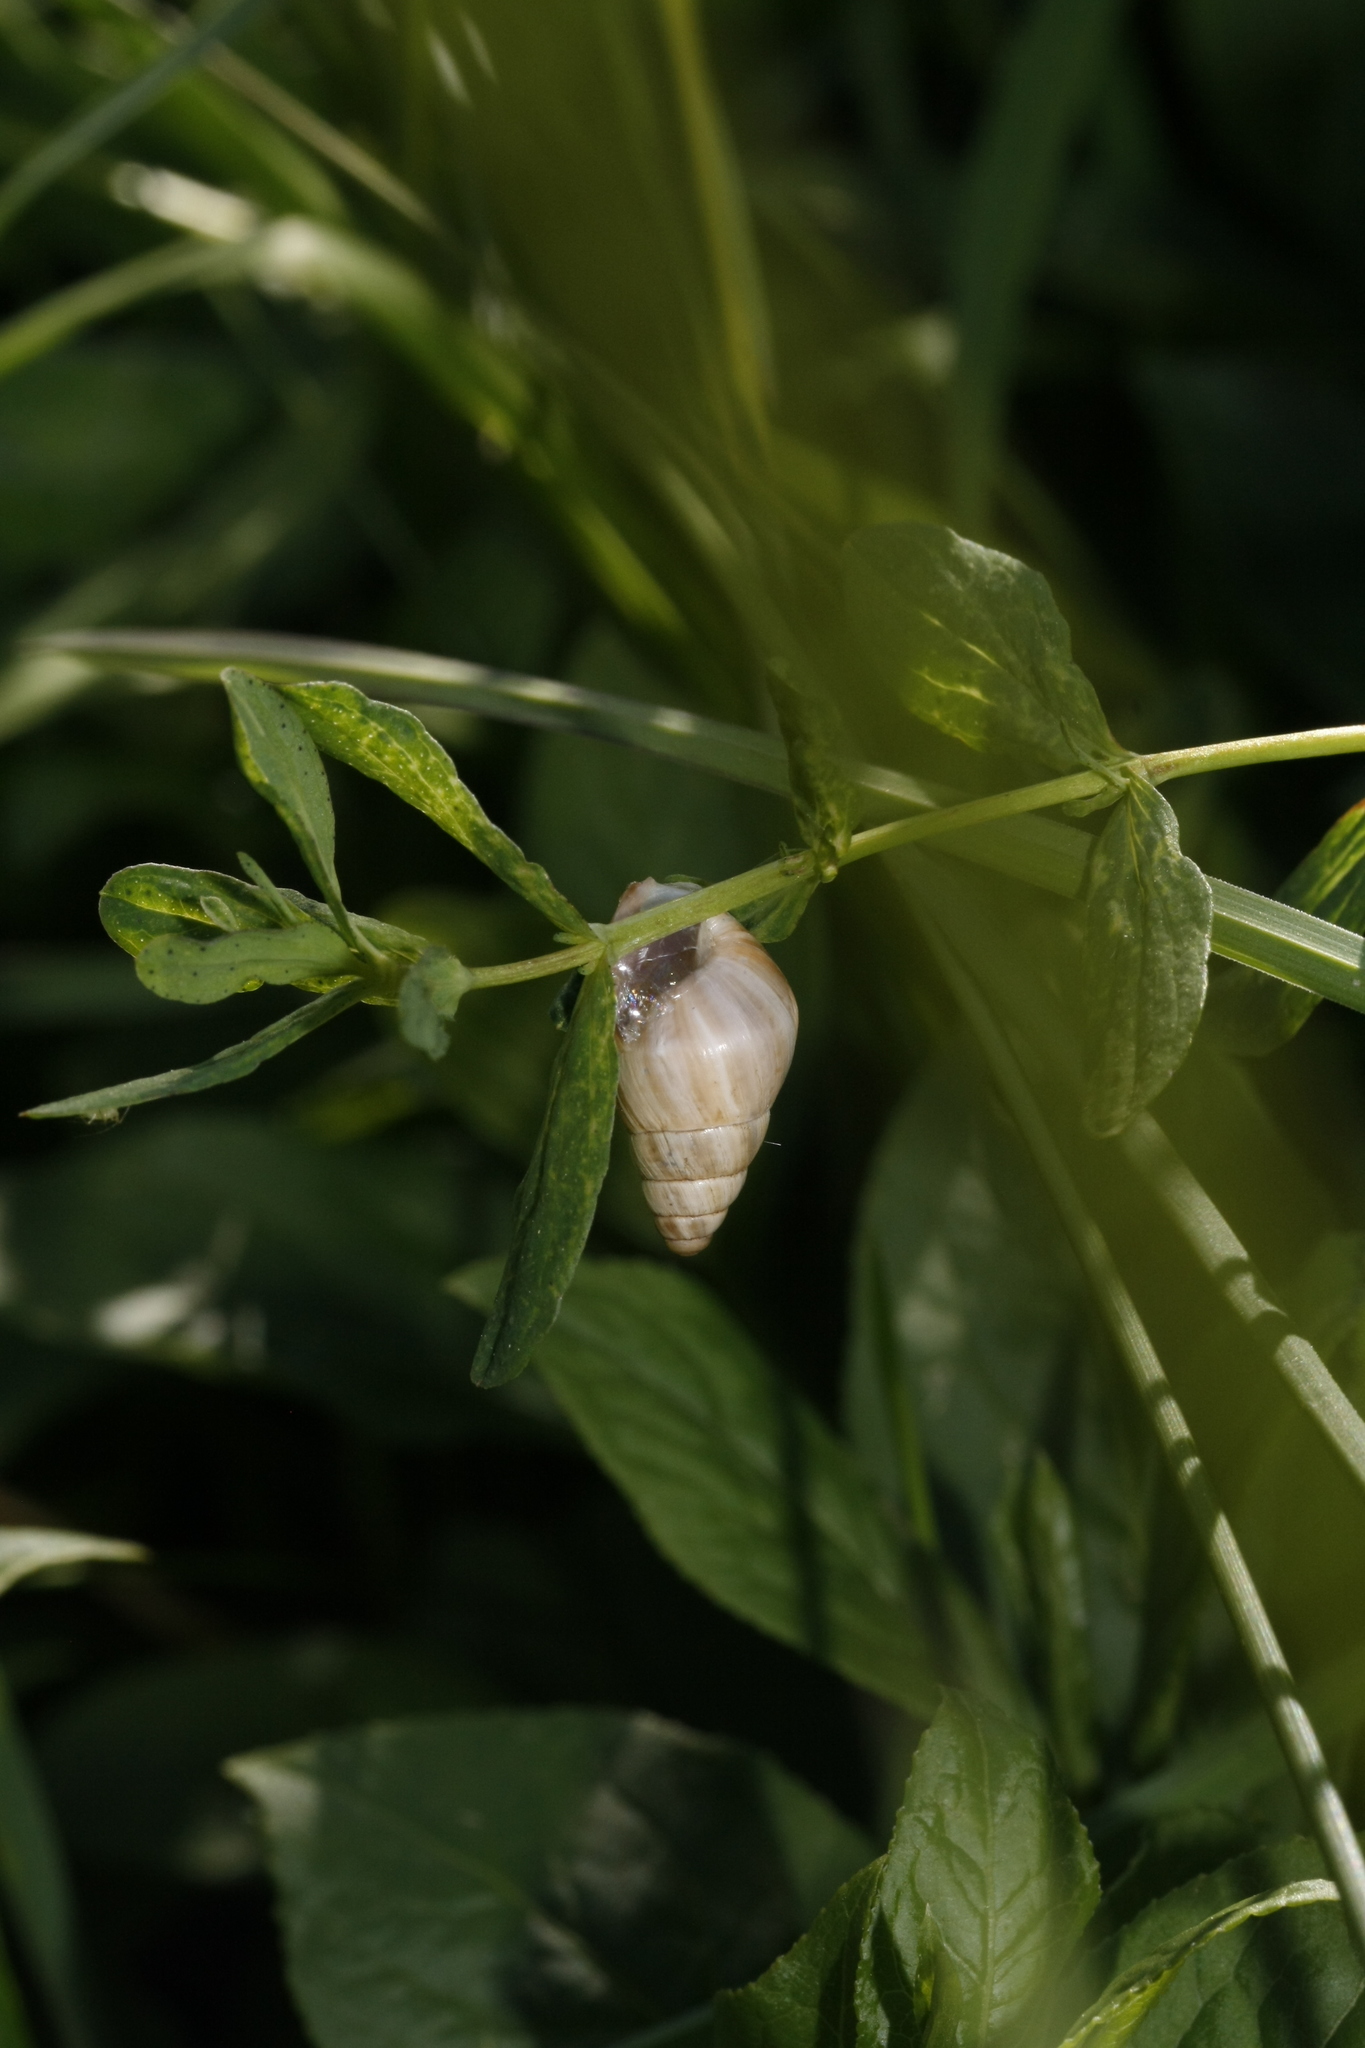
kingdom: Animalia
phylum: Mollusca
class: Gastropoda
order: Stylommatophora
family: Enidae
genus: Zebrina
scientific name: Zebrina detrita
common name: Large bulin
